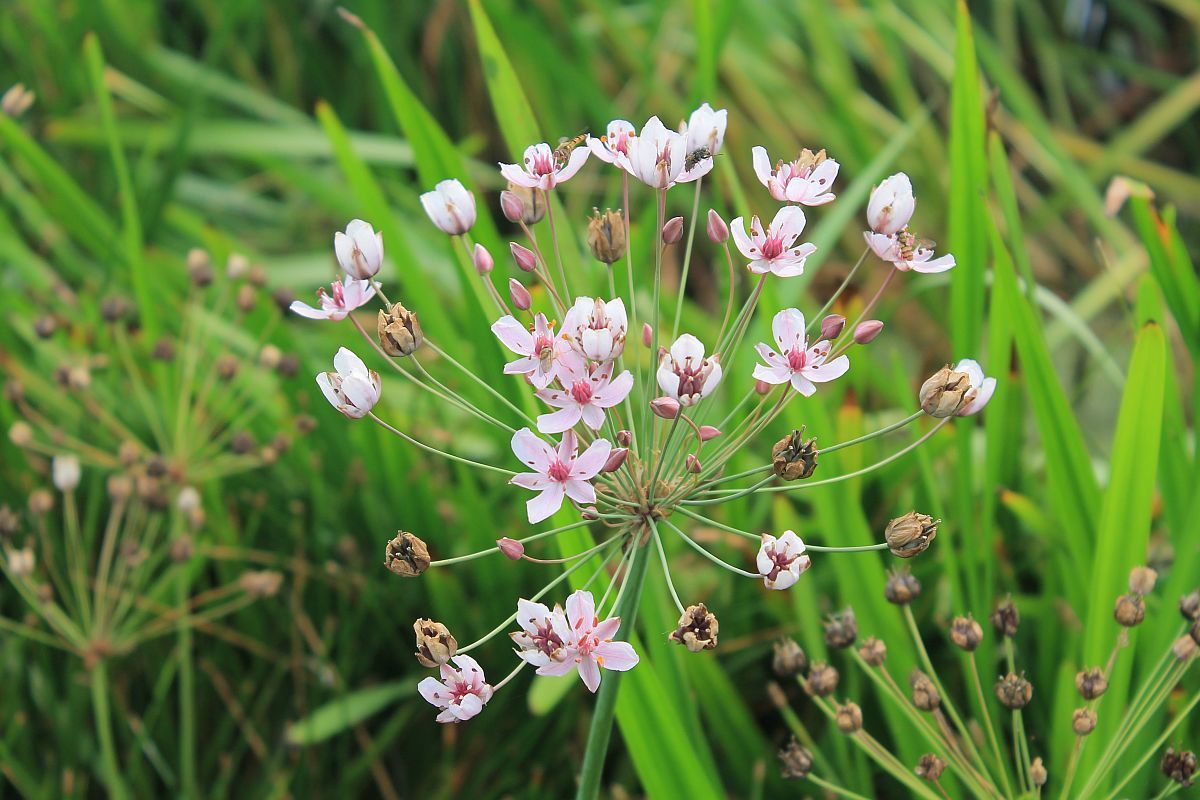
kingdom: Plantae
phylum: Tracheophyta
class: Liliopsida
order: Alismatales
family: Butomaceae
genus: Butomus
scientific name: Butomus umbellatus
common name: Flowering-rush
